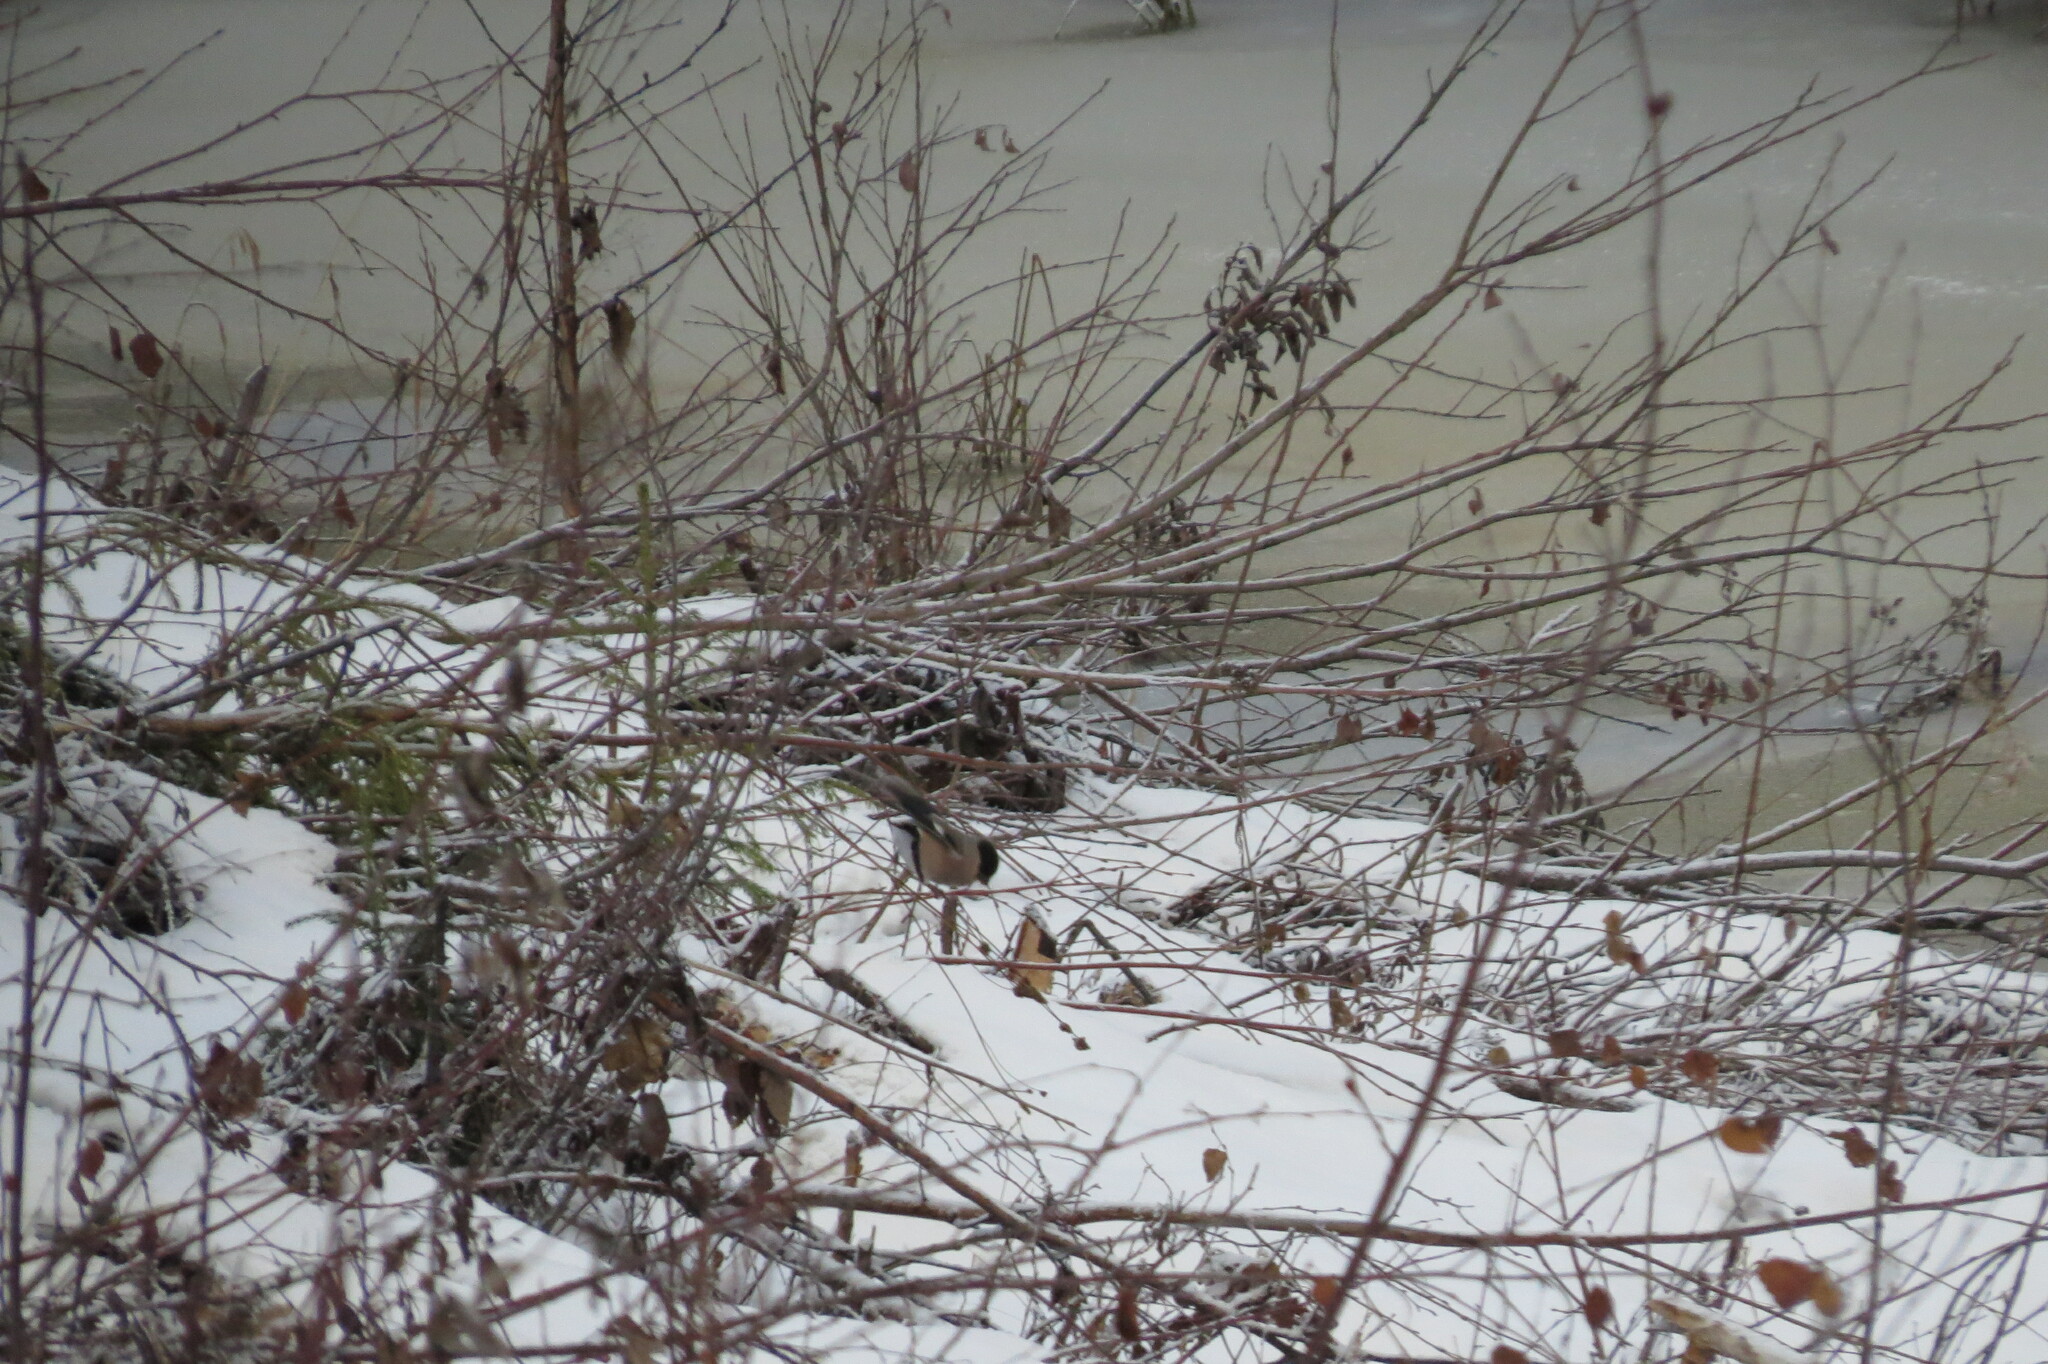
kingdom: Animalia
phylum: Chordata
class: Aves
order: Passeriformes
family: Fringillidae
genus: Pyrrhula
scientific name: Pyrrhula pyrrhula
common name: Eurasian bullfinch
